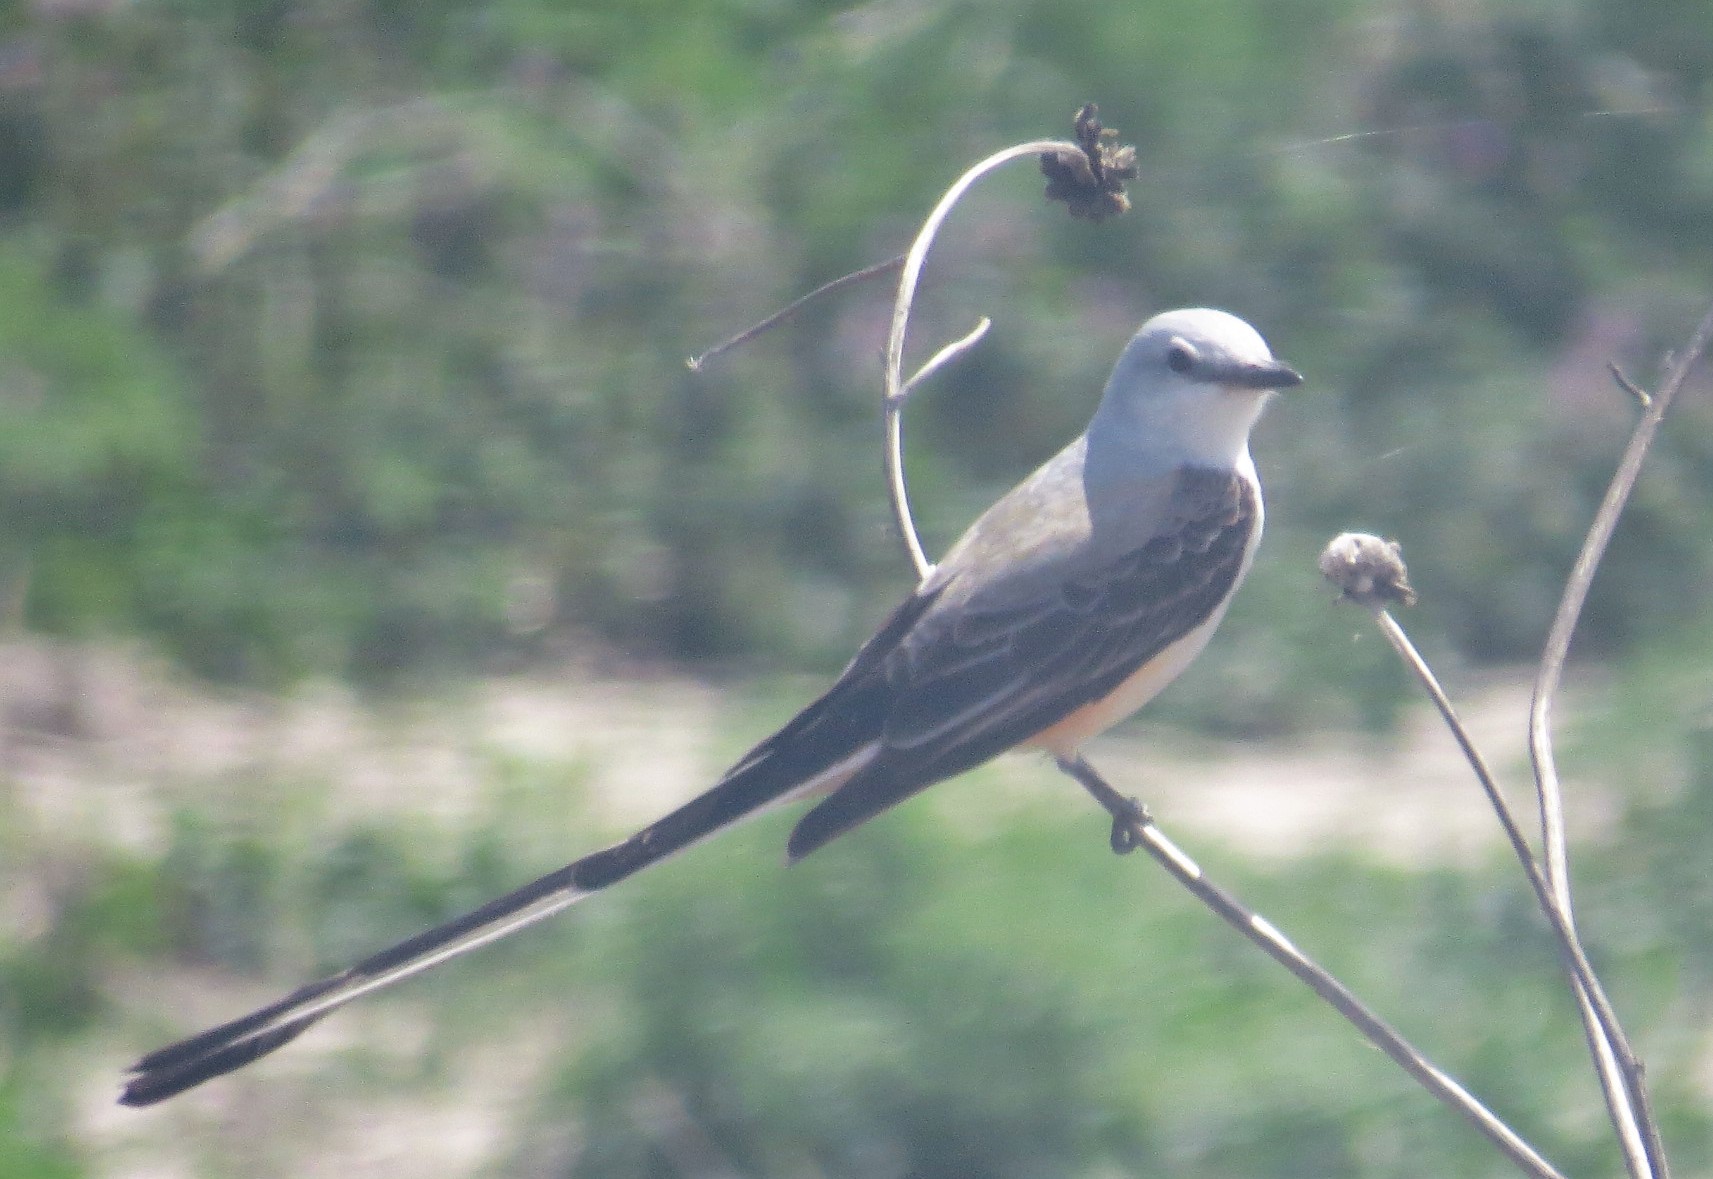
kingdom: Animalia
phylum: Chordata
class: Aves
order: Passeriformes
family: Tyrannidae
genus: Tyrannus
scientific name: Tyrannus forficatus
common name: Scissor-tailed flycatcher
